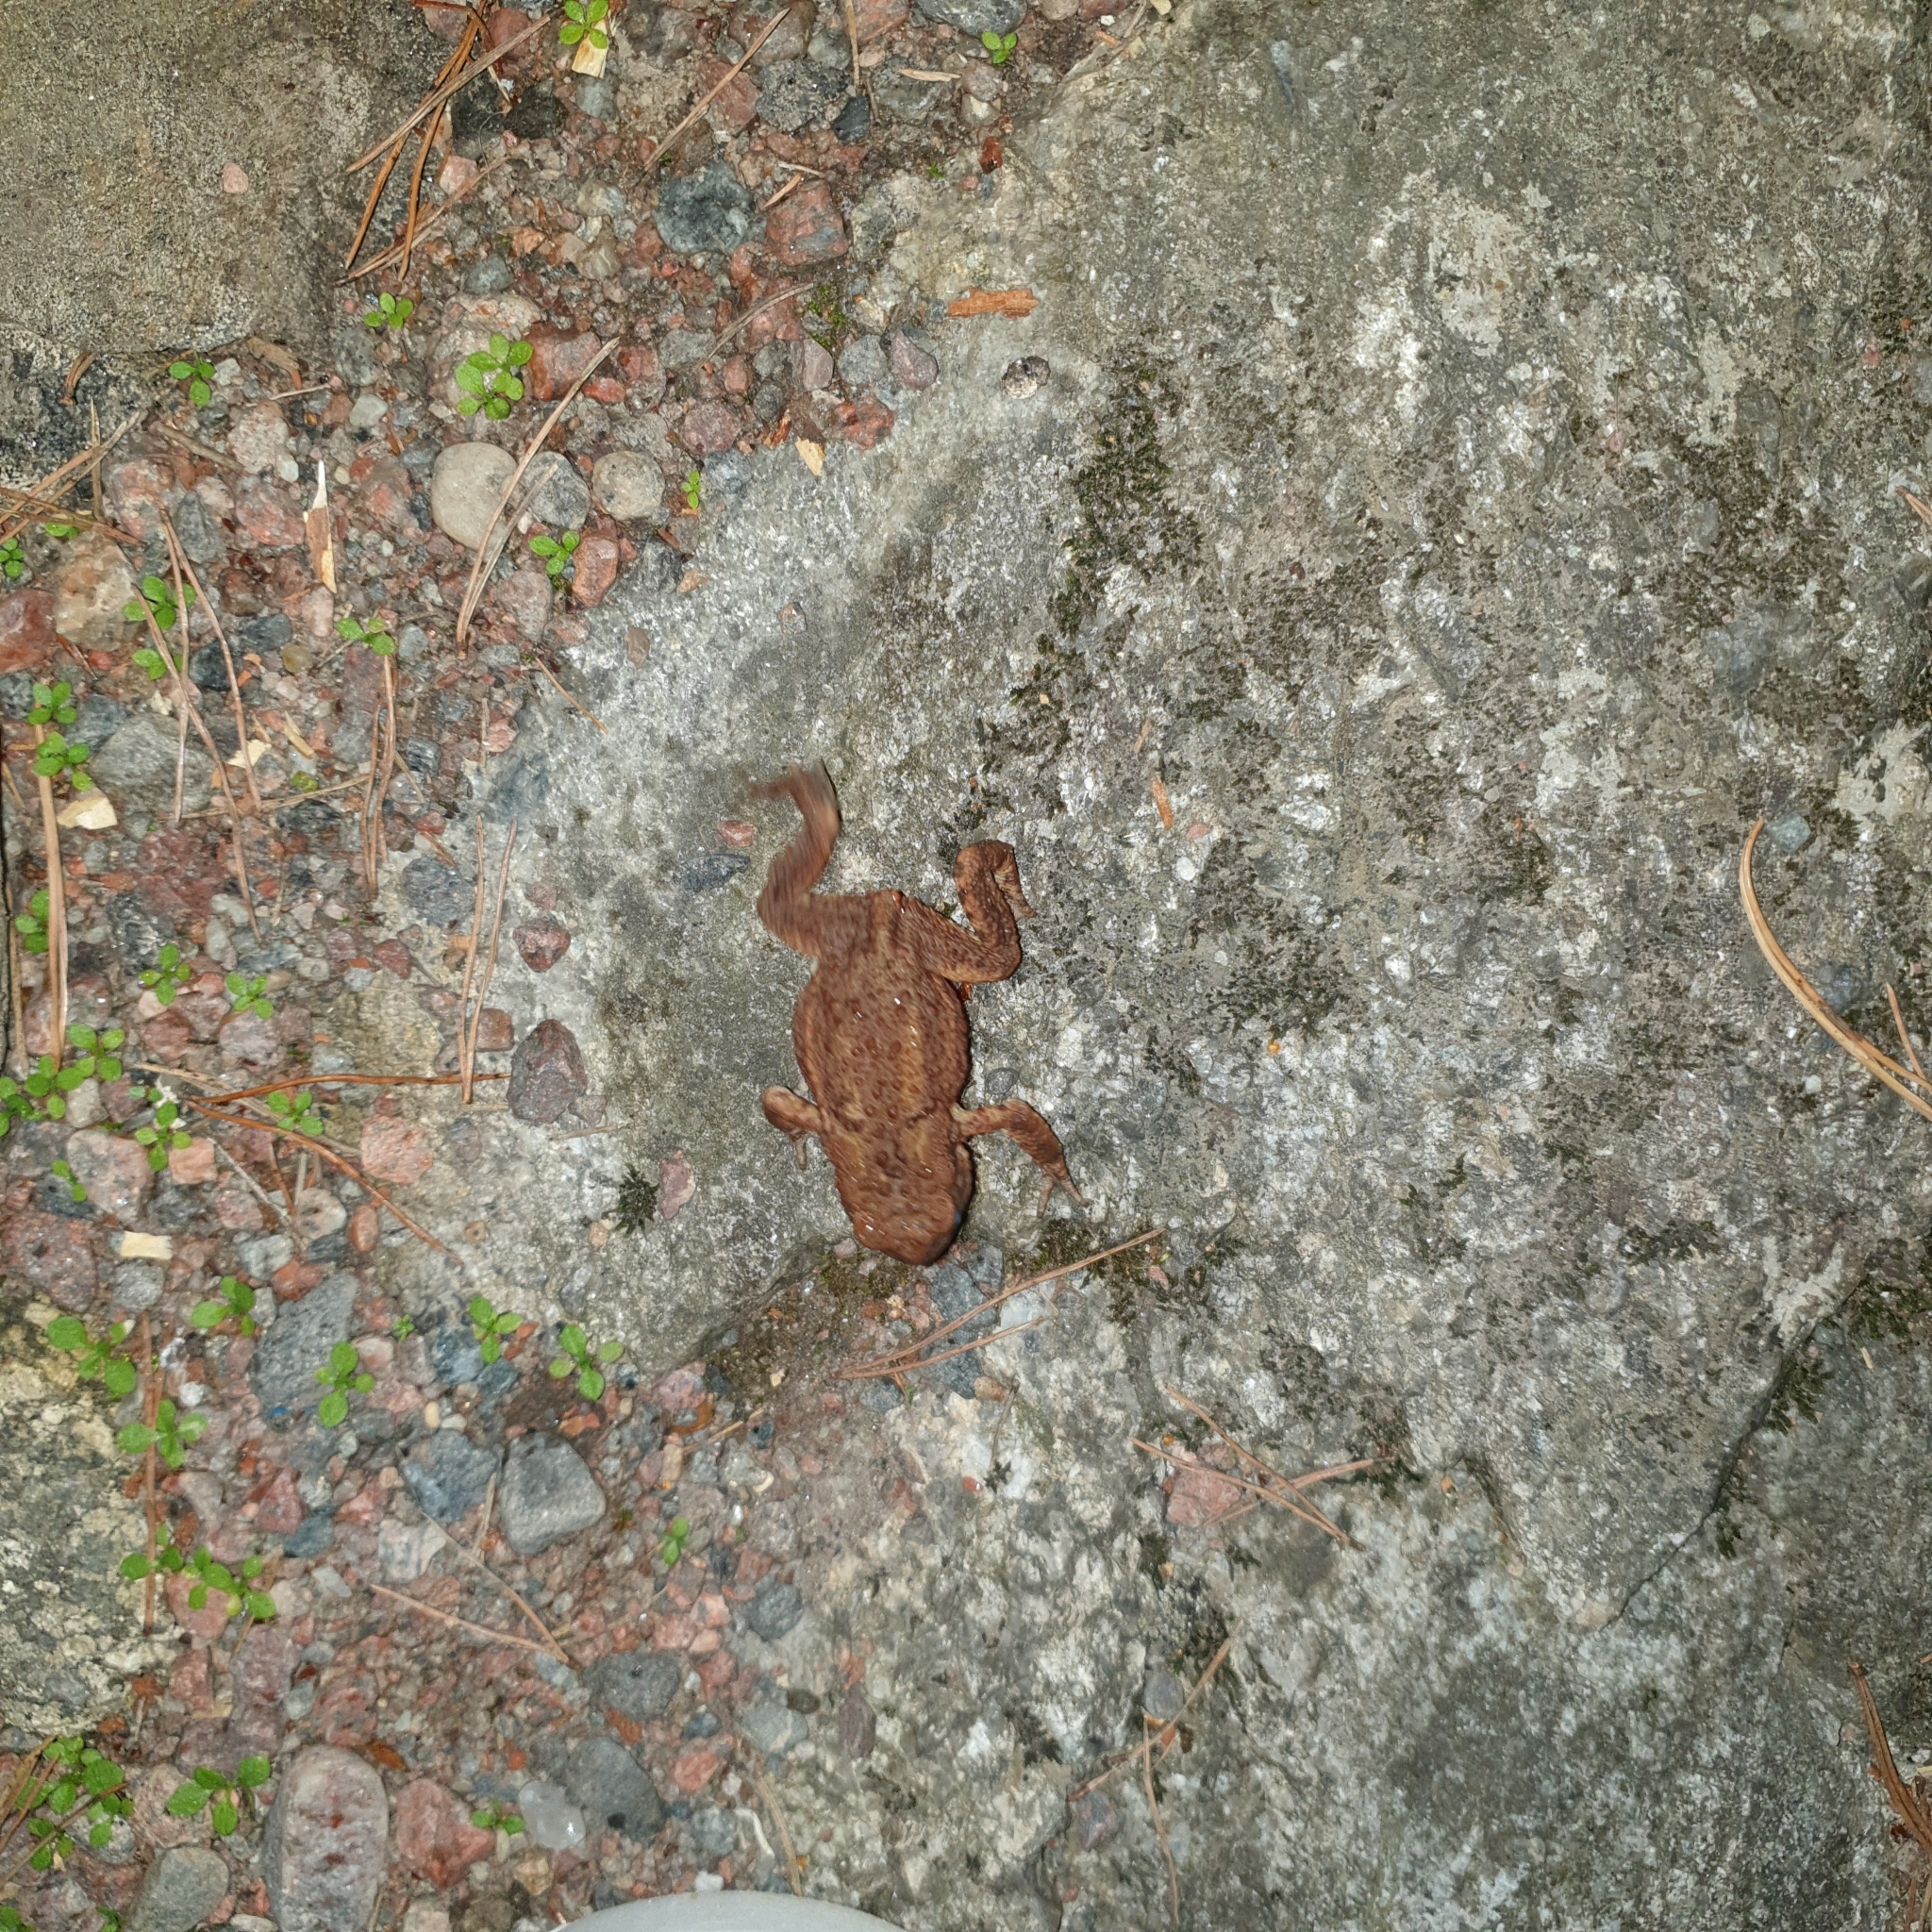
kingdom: Animalia
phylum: Chordata
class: Amphibia
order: Anura
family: Bufonidae
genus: Bufo
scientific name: Bufo bufo
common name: Common toad
